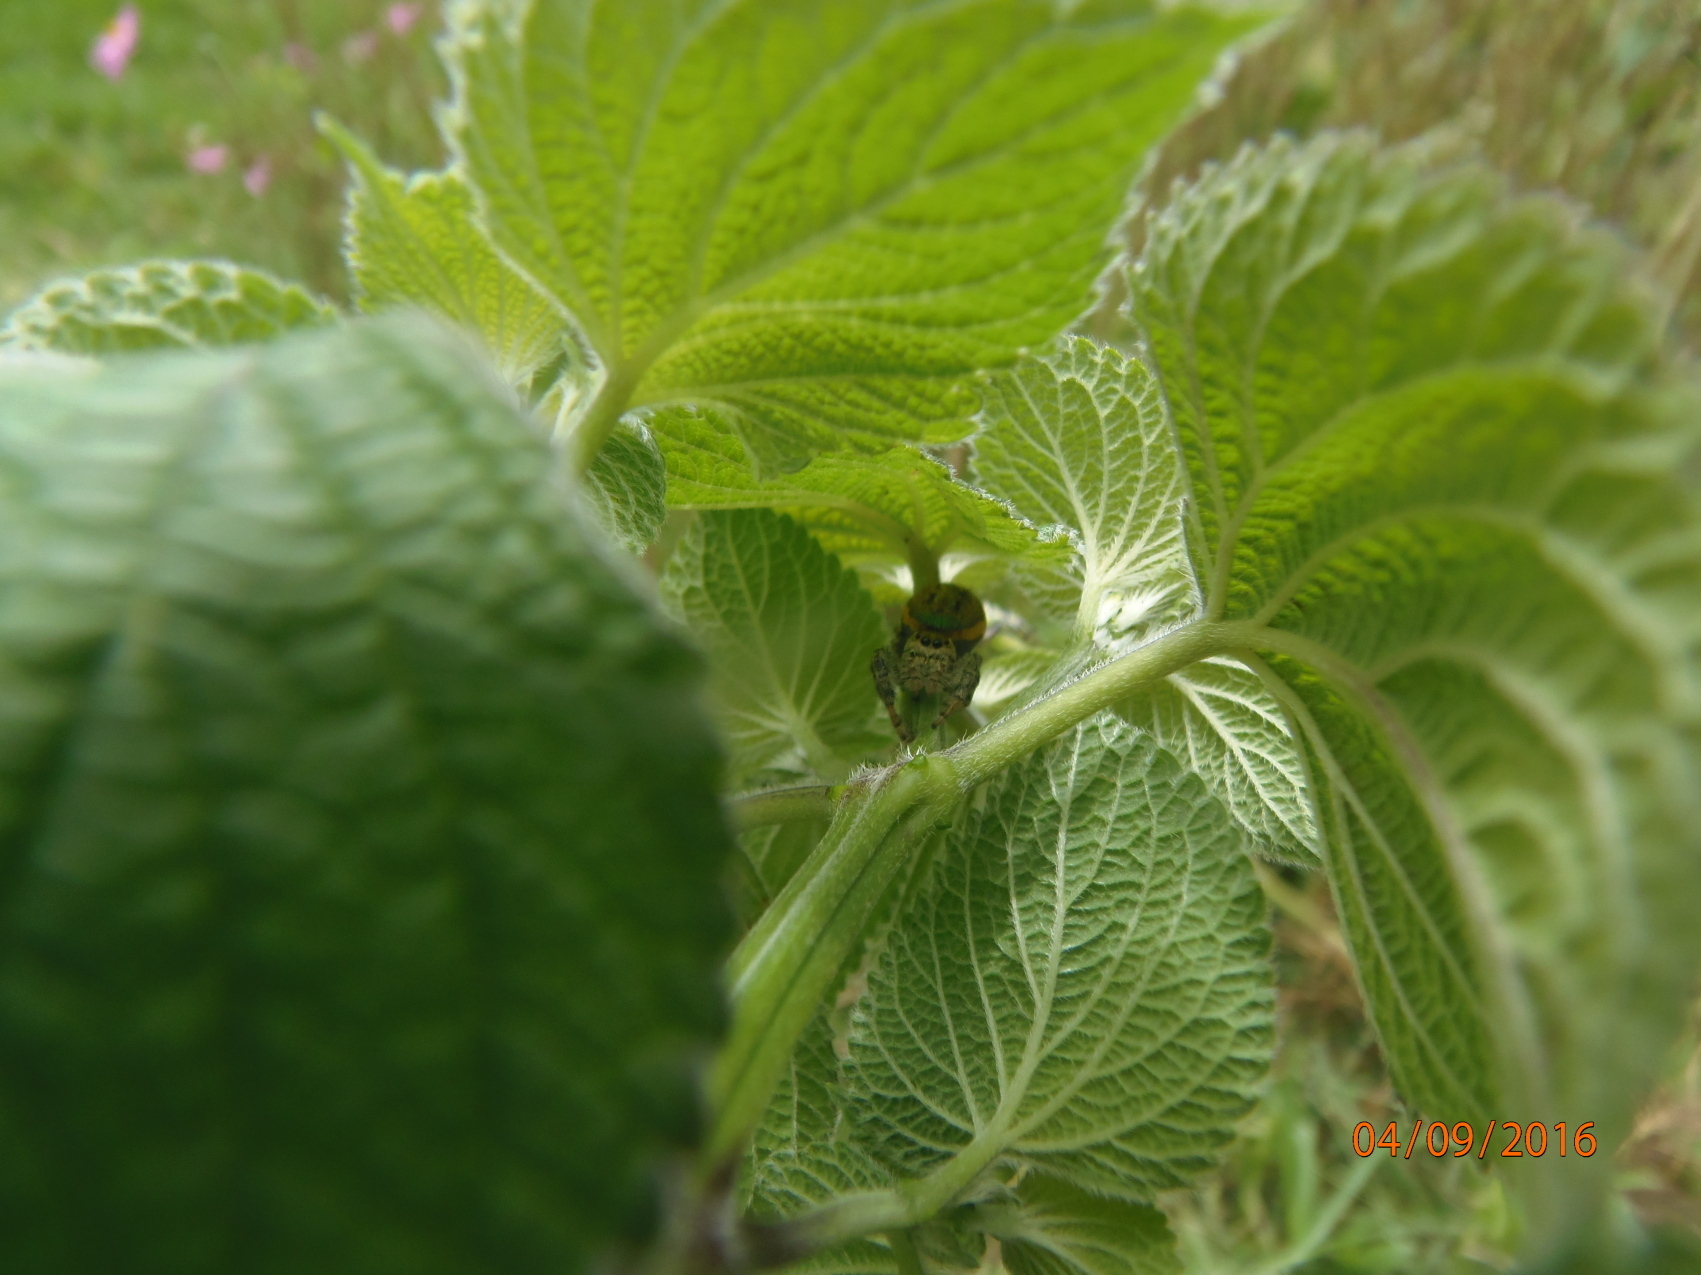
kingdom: Animalia
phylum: Arthropoda
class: Arachnida
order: Araneae
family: Salticidae
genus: Paraphidippus
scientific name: Paraphidippus aurantius
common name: Jumping spiders
